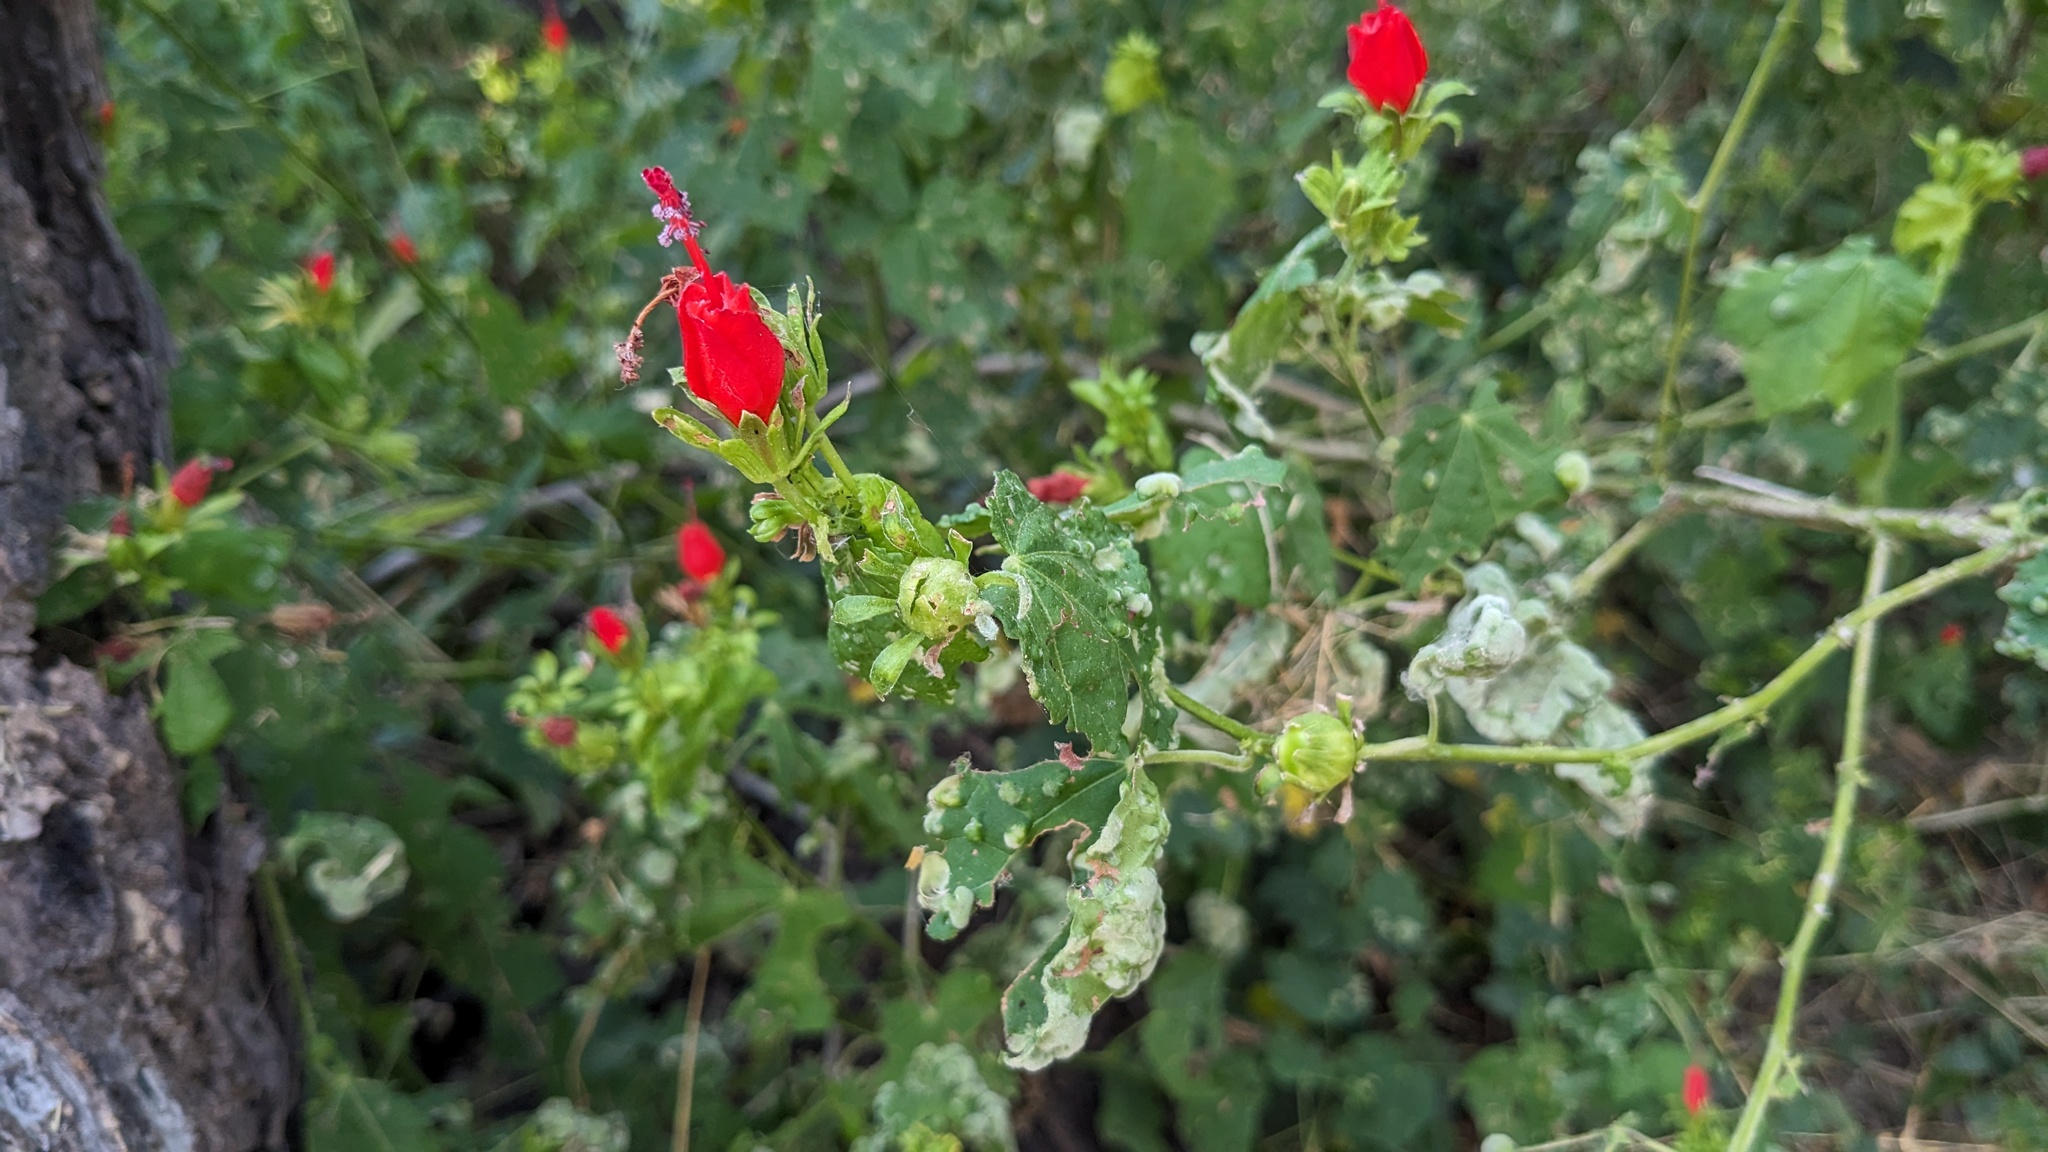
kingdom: Plantae
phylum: Tracheophyta
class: Magnoliopsida
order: Malvales
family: Malvaceae
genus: Malvaviscus
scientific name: Malvaviscus arboreus
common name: Wax mallow
